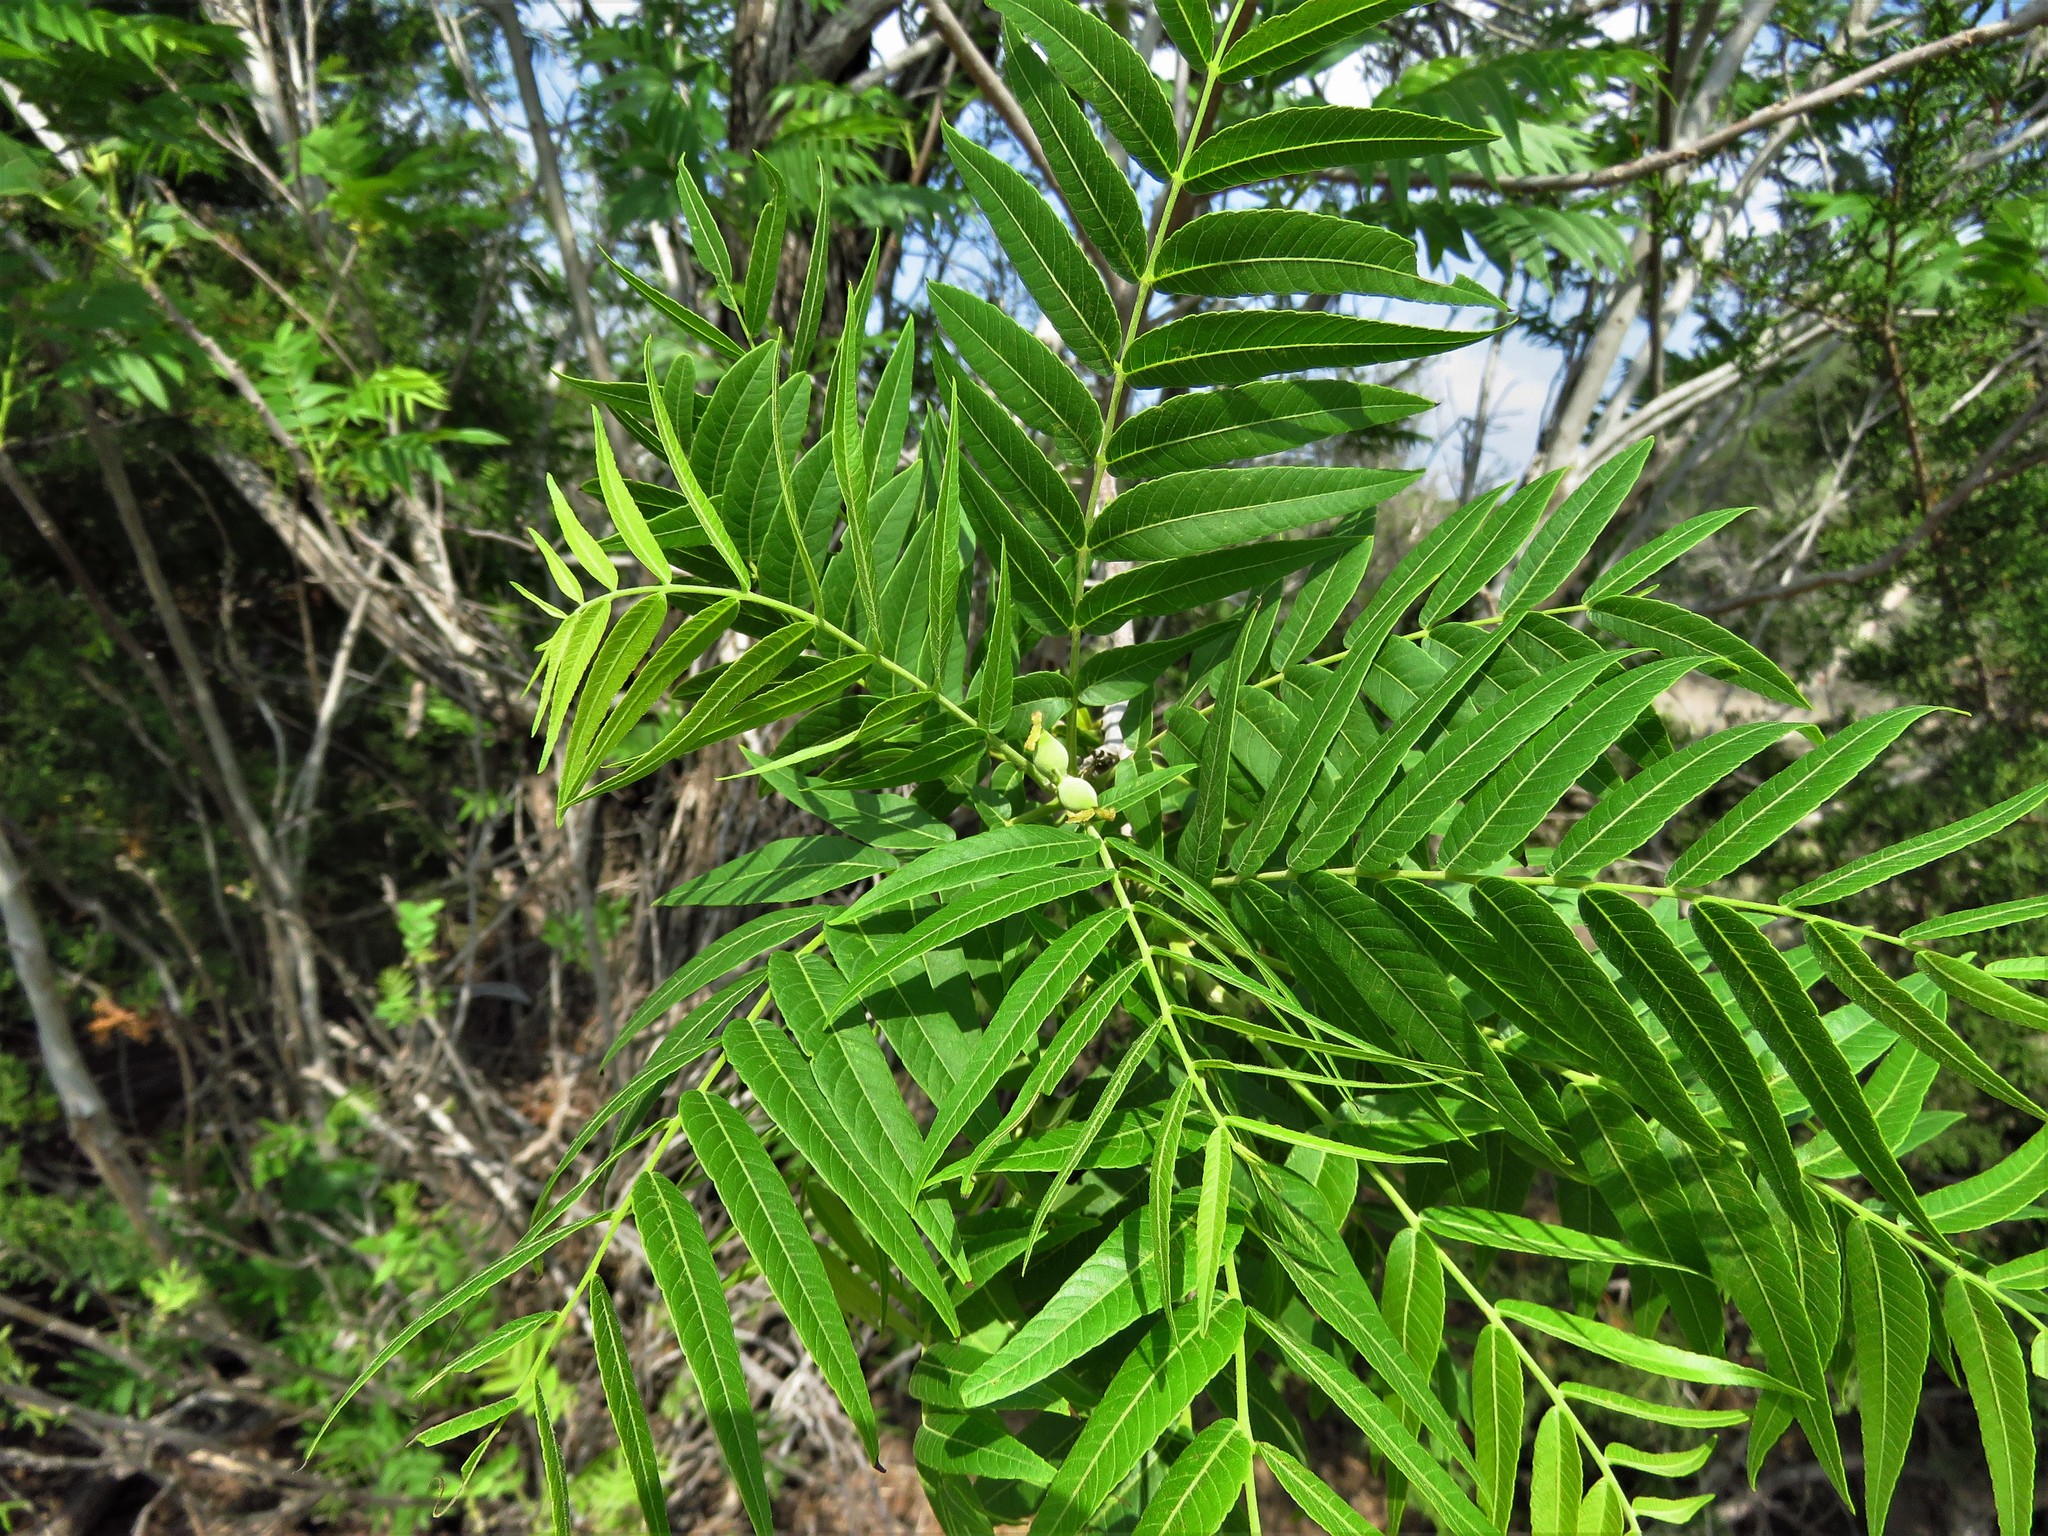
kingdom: Plantae
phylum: Tracheophyta
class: Magnoliopsida
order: Fagales
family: Juglandaceae
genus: Juglans
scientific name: Juglans microcarpa
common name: Texas walnut
